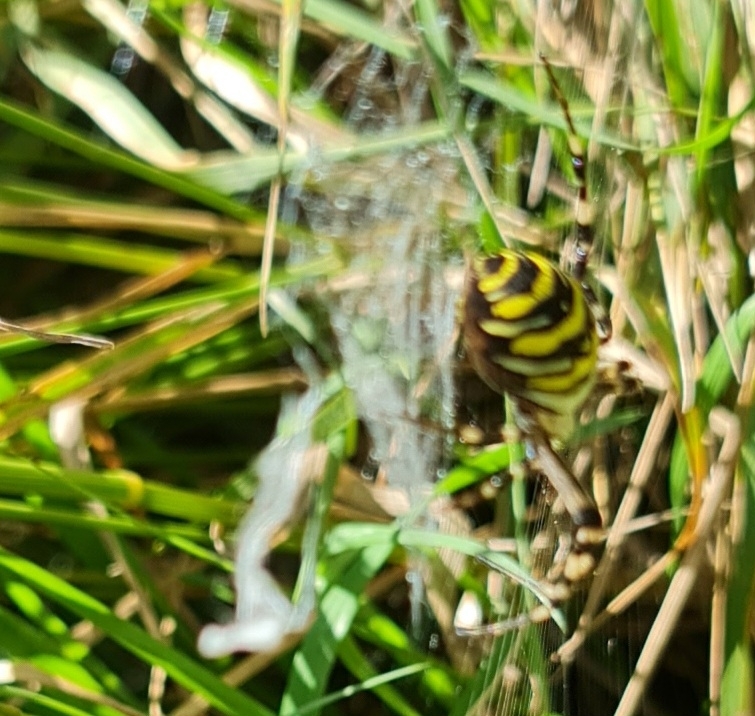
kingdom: Animalia
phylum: Arthropoda
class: Arachnida
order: Araneae
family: Araneidae
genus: Argiope
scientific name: Argiope bruennichi
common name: Wasp spider
